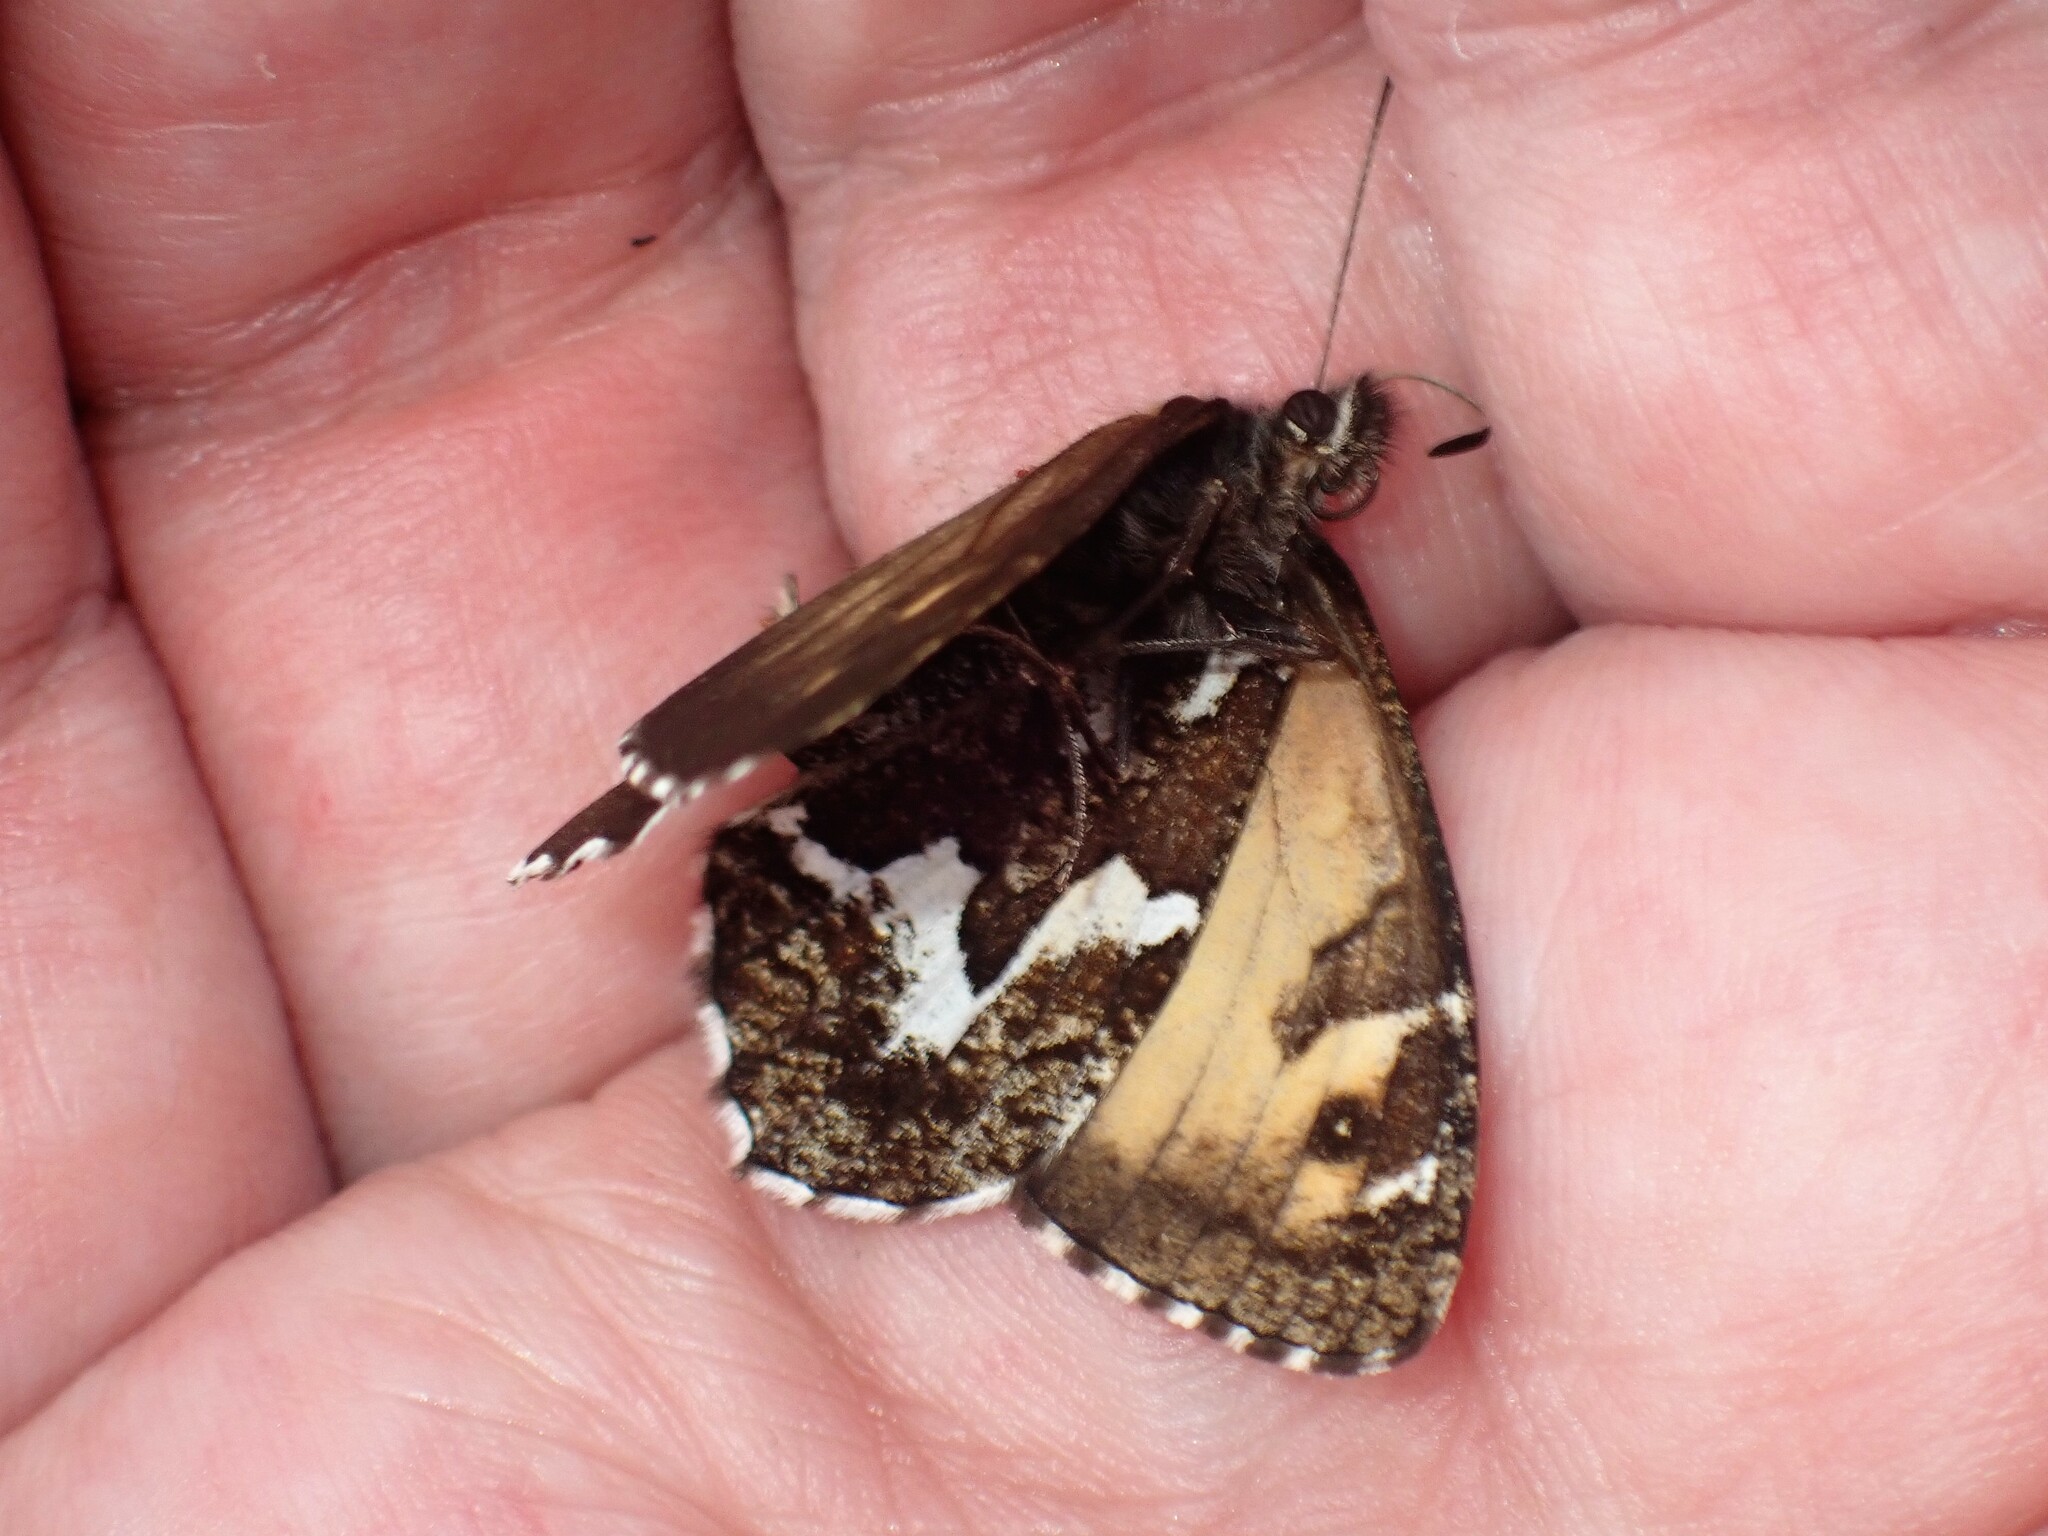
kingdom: Animalia
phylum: Arthropoda
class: Insecta
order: Lepidoptera
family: Nymphalidae
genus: Hipparchia
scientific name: Hipparchia azorinus
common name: Azores grayling
